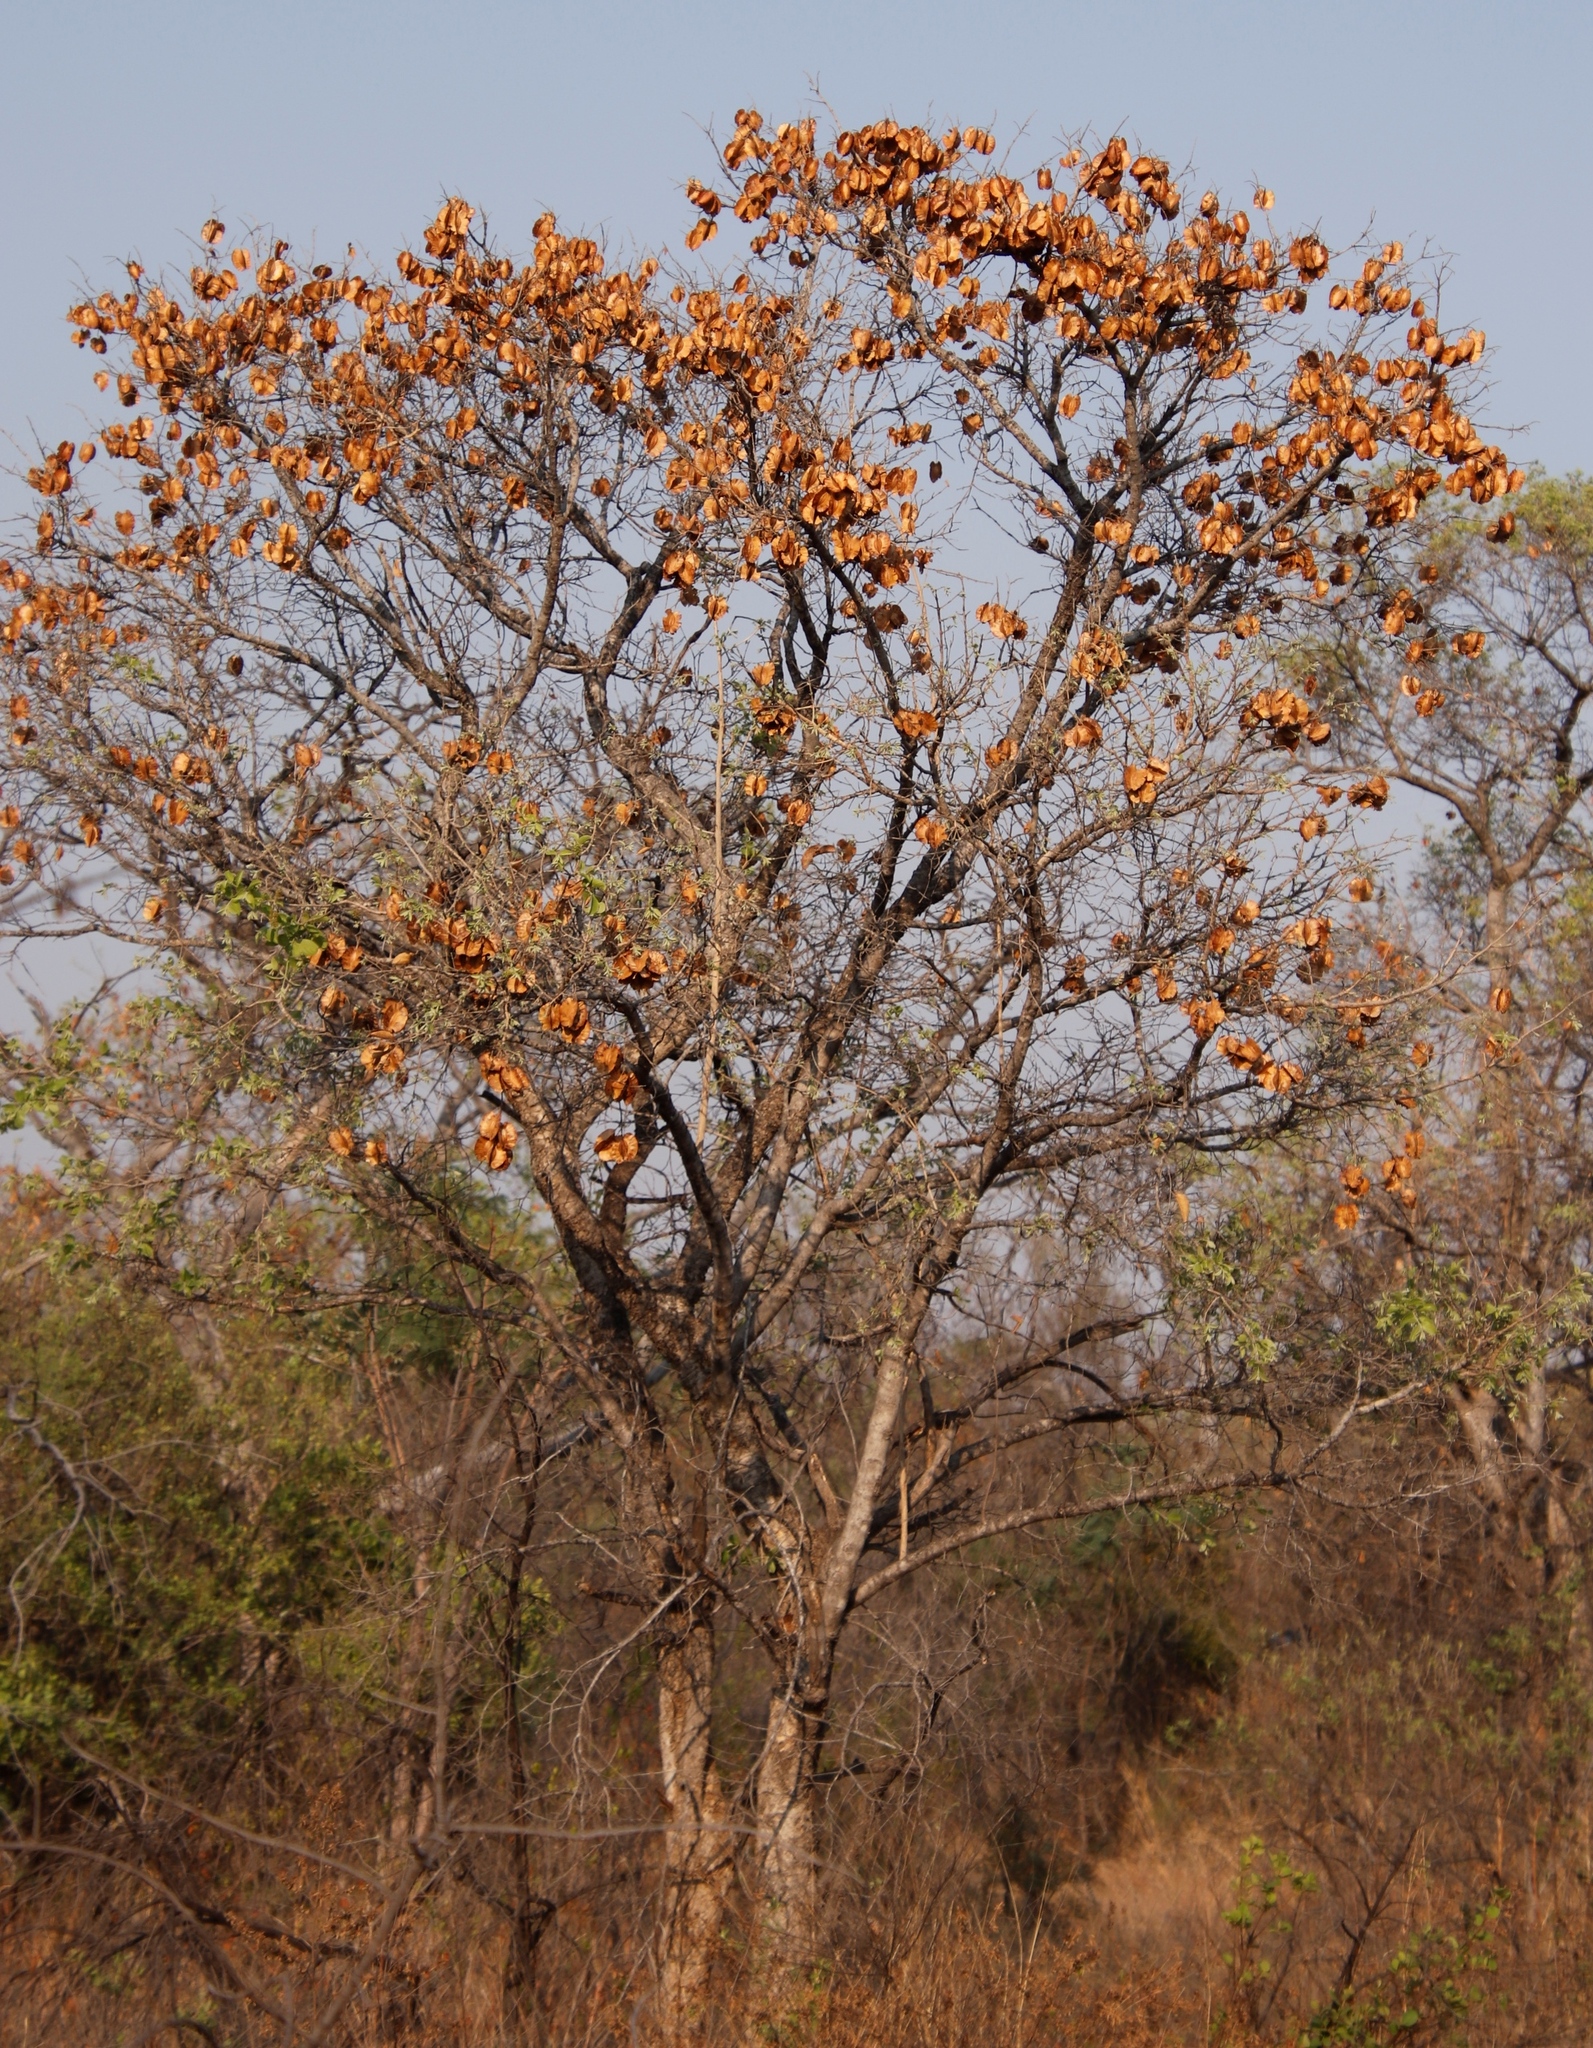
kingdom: Plantae
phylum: Tracheophyta
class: Magnoliopsida
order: Myrtales
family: Combretaceae
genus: Combretum
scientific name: Combretum zeyheri
